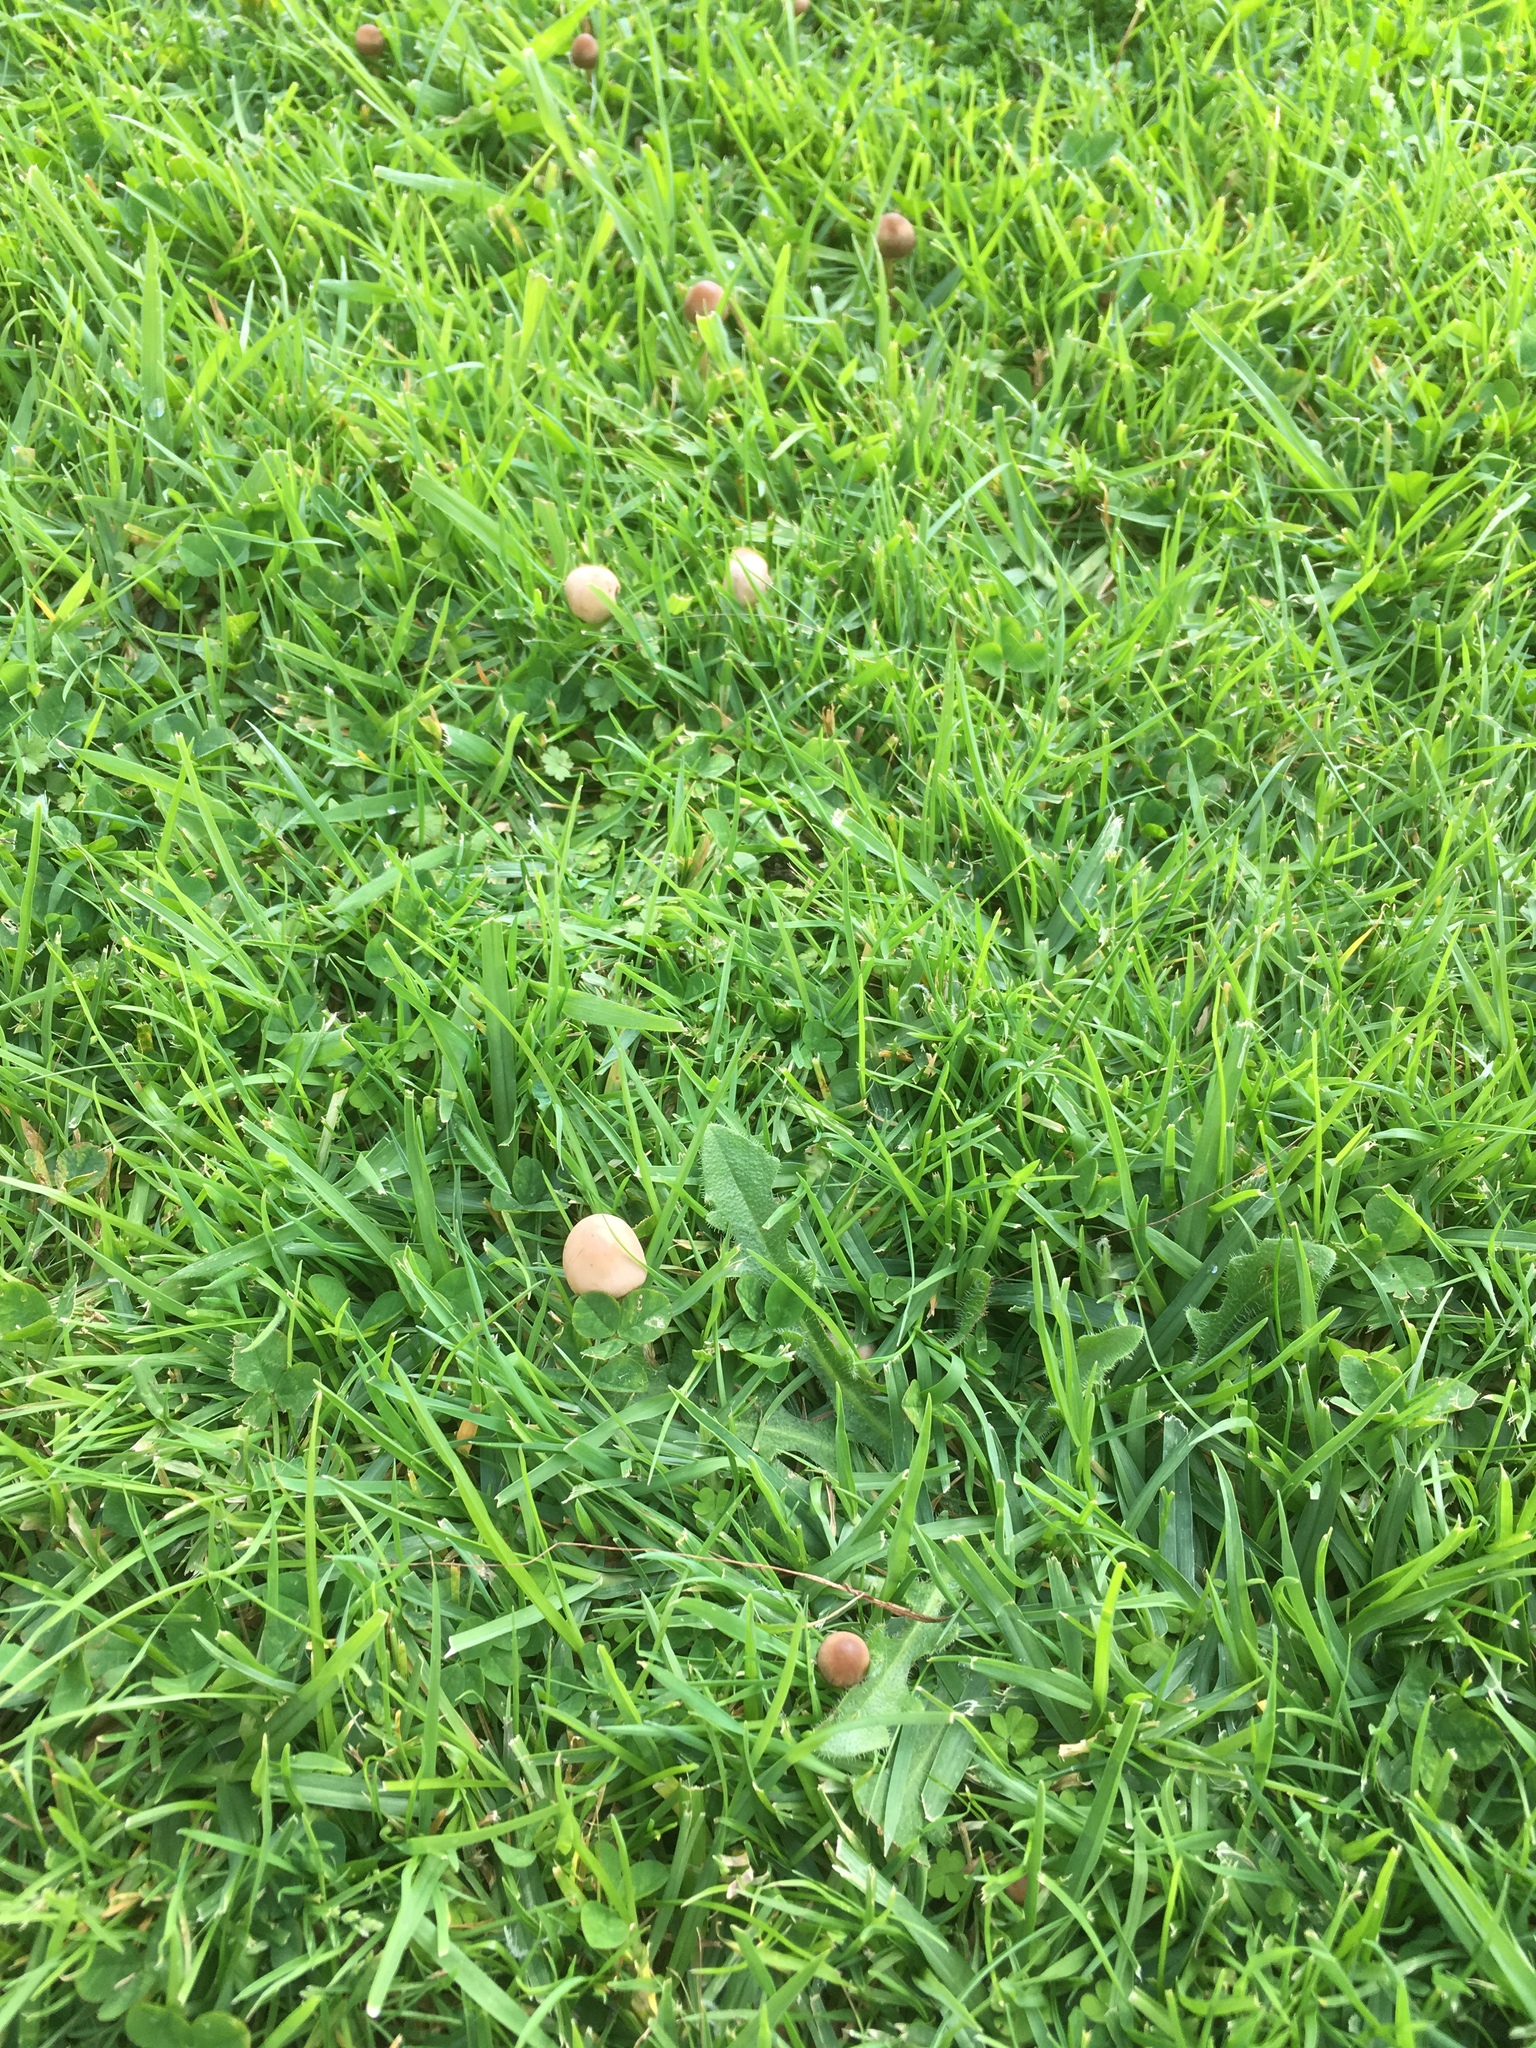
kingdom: Fungi
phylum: Basidiomycota
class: Agaricomycetes
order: Agaricales
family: Bolbitiaceae
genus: Panaeolina
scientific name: Panaeolina foenisecii
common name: Brown hay cap
